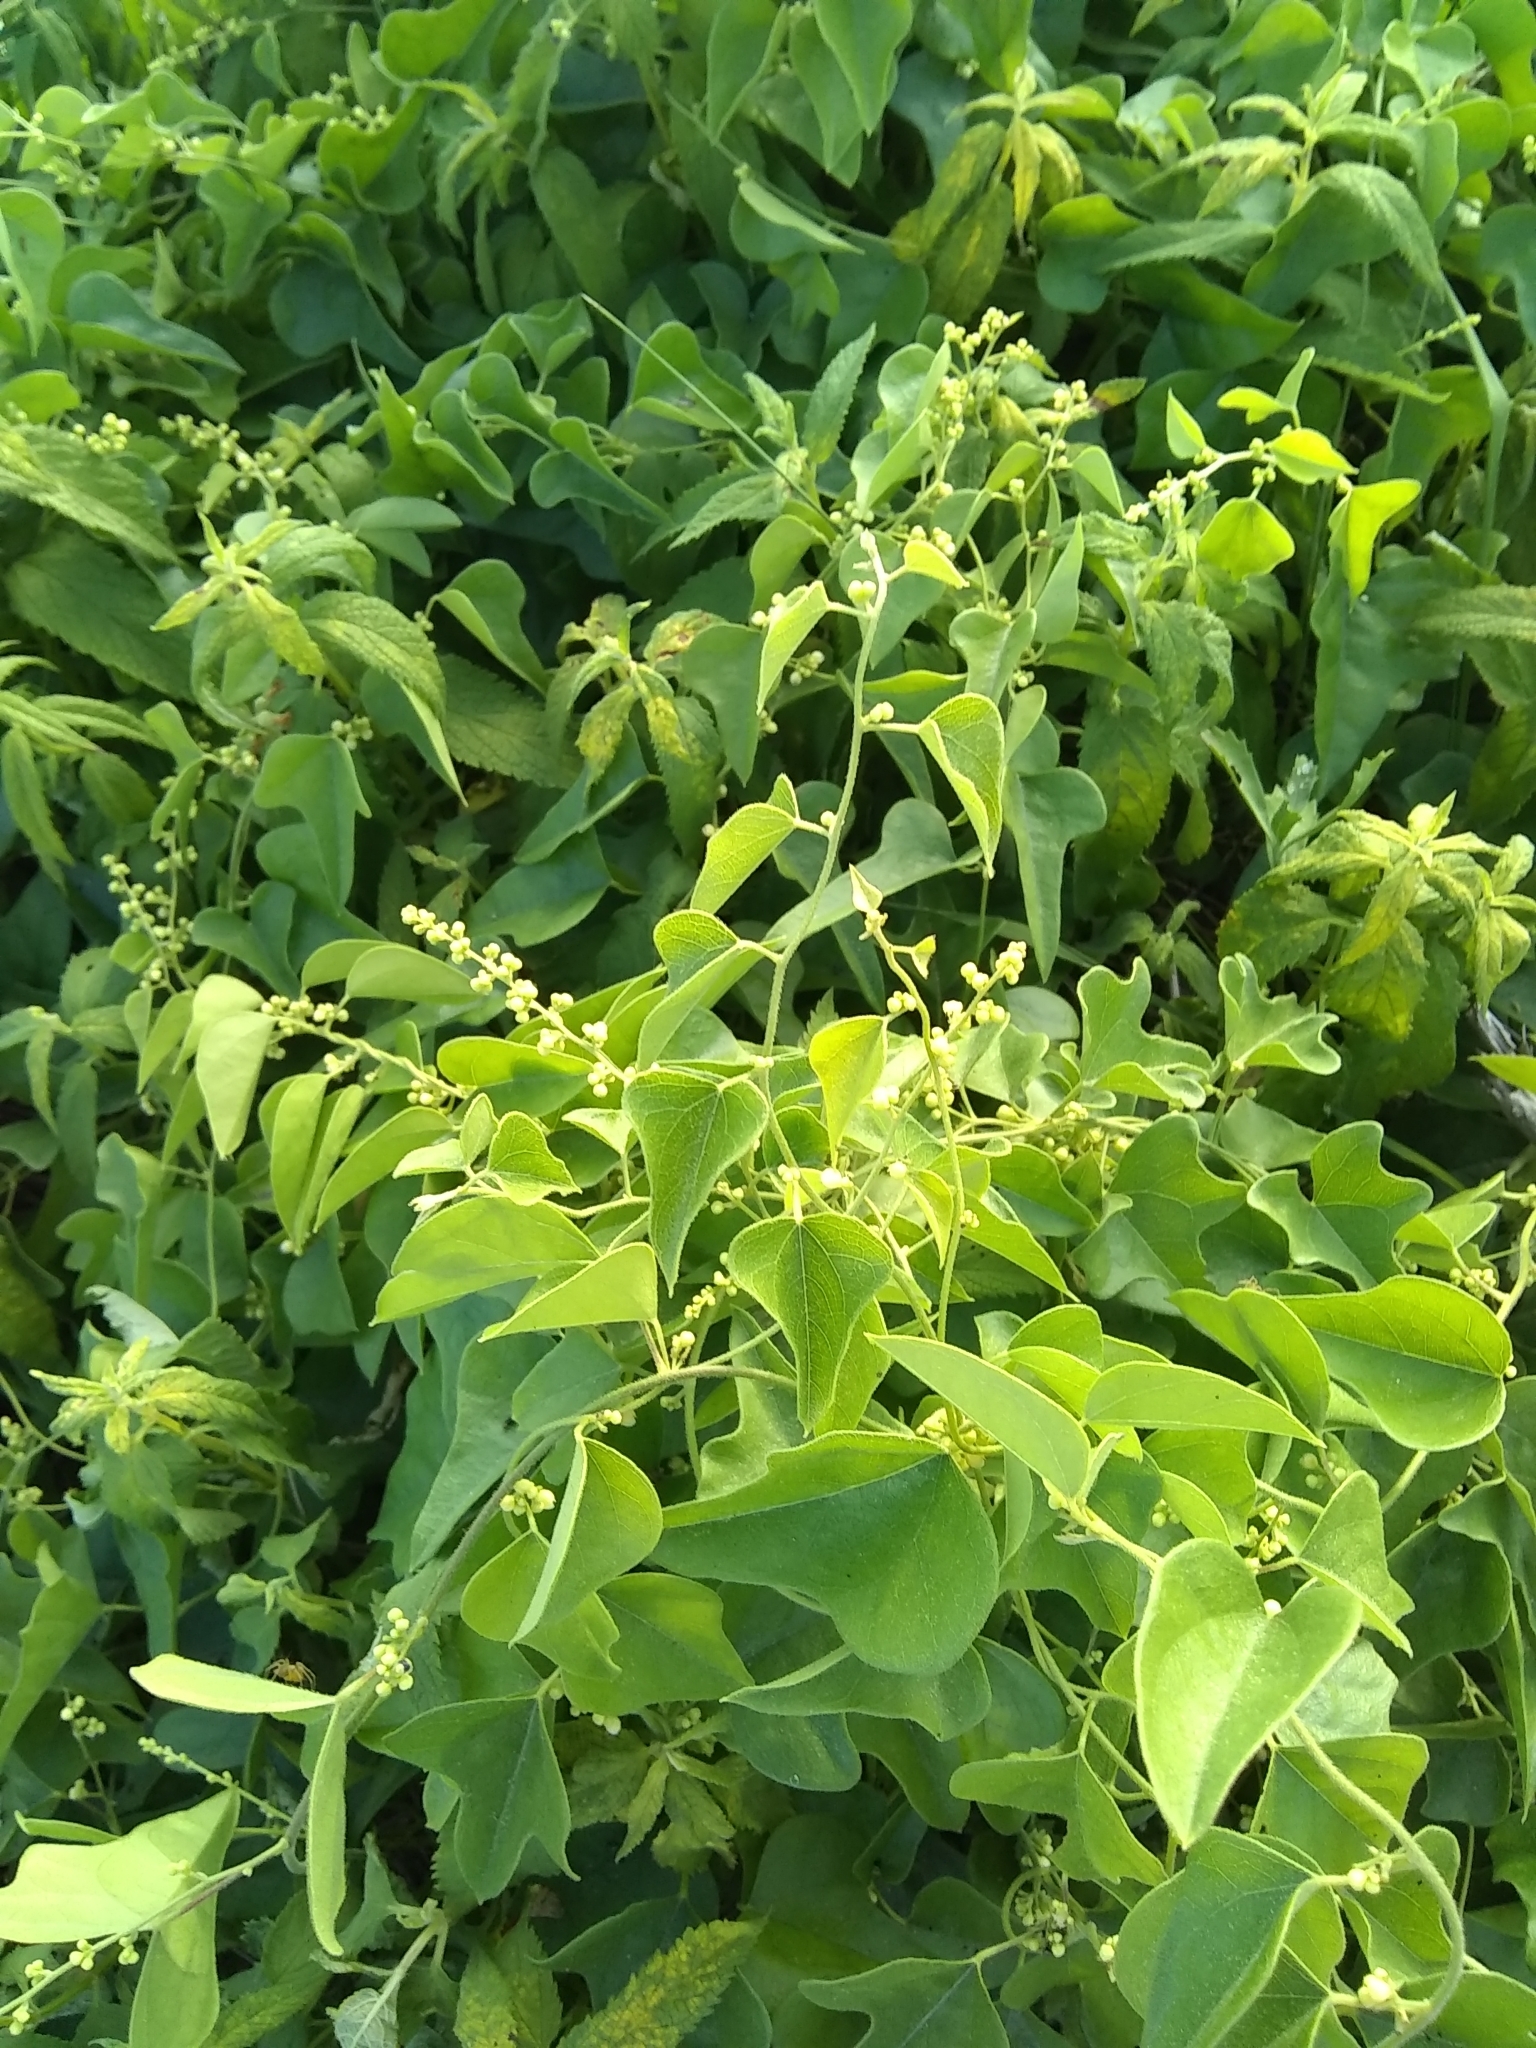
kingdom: Plantae
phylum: Tracheophyta
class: Magnoliopsida
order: Ranunculales
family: Menispermaceae
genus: Cocculus
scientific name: Cocculus carolinus
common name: Carolina moonseed
